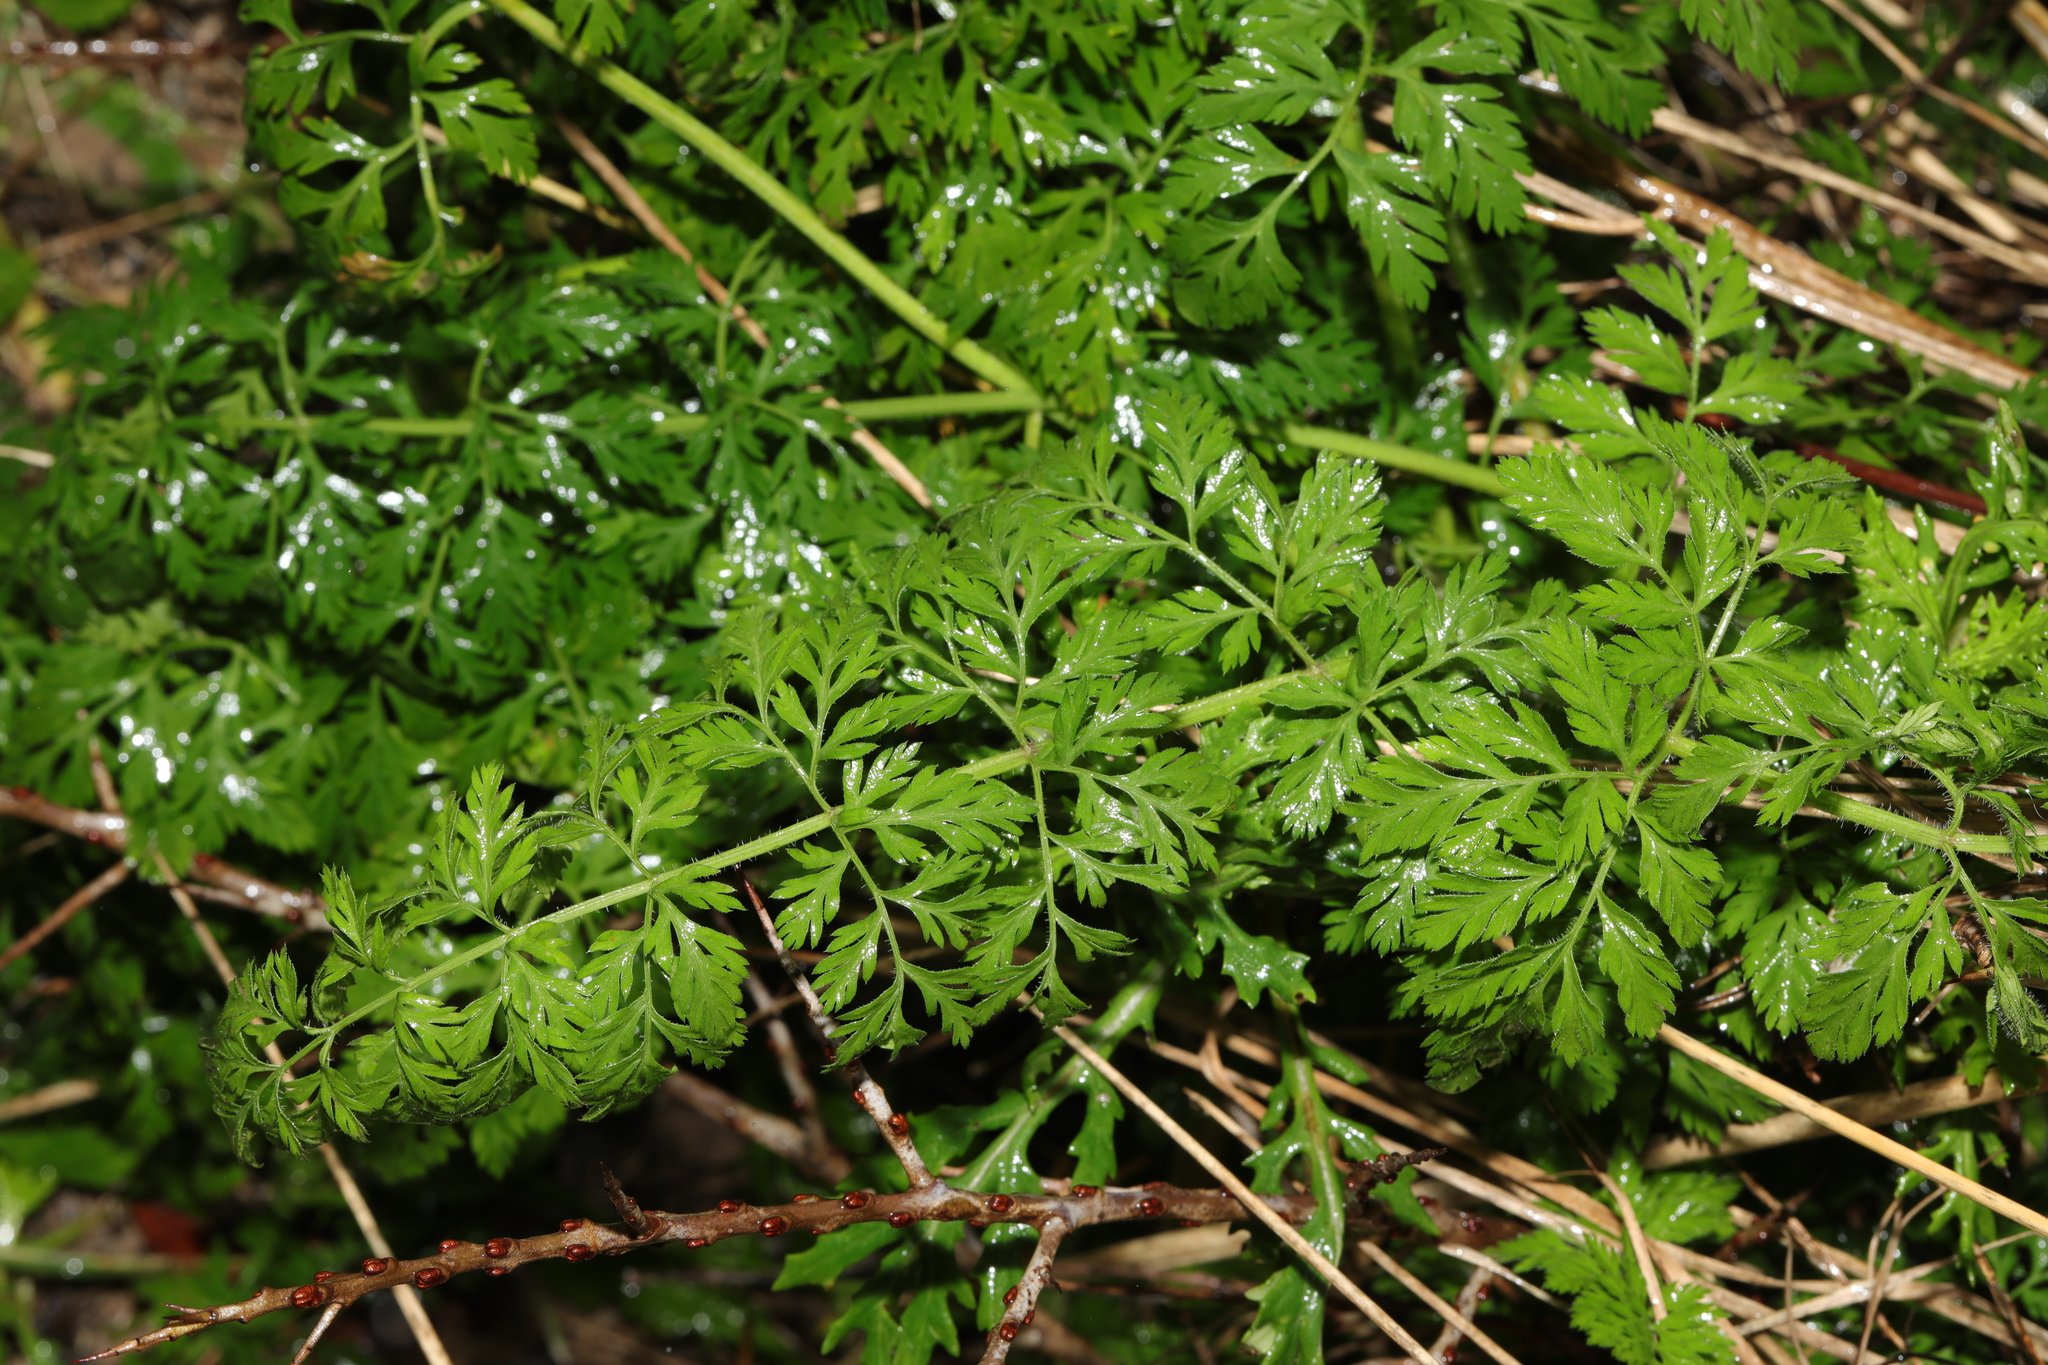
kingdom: Plantae
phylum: Tracheophyta
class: Magnoliopsida
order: Apiales
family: Apiaceae
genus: Daucus
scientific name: Daucus carota
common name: Wild carrot
